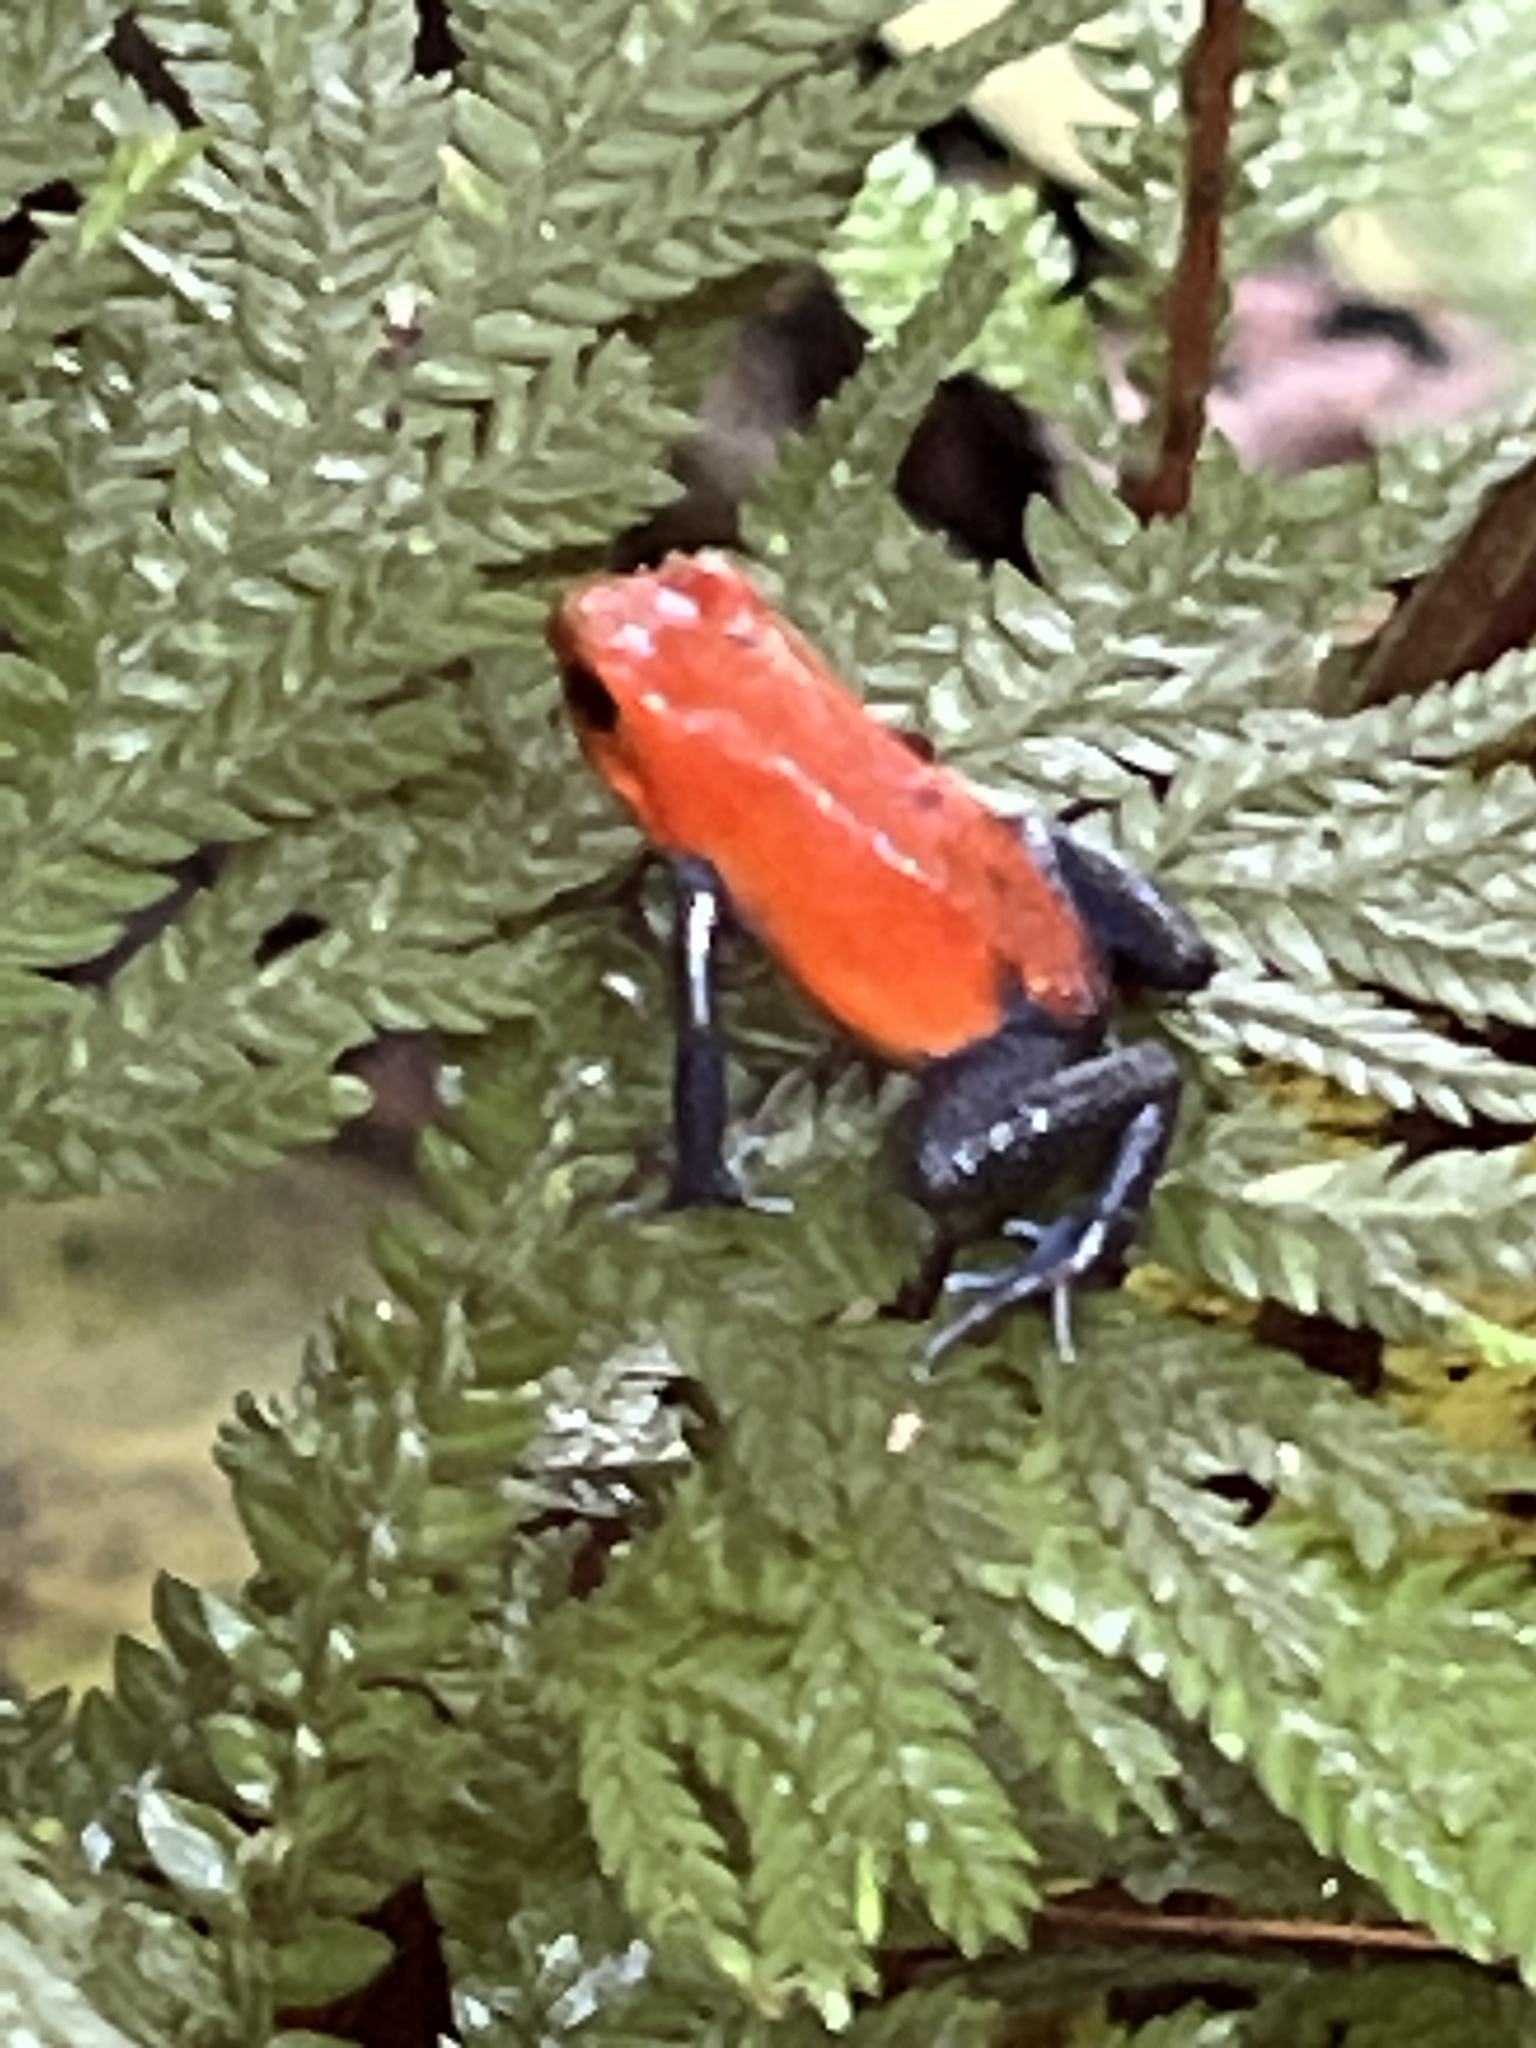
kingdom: Animalia
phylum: Chordata
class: Amphibia
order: Anura
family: Dendrobatidae
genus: Oophaga
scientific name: Oophaga pumilio
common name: Flaming poison frog
